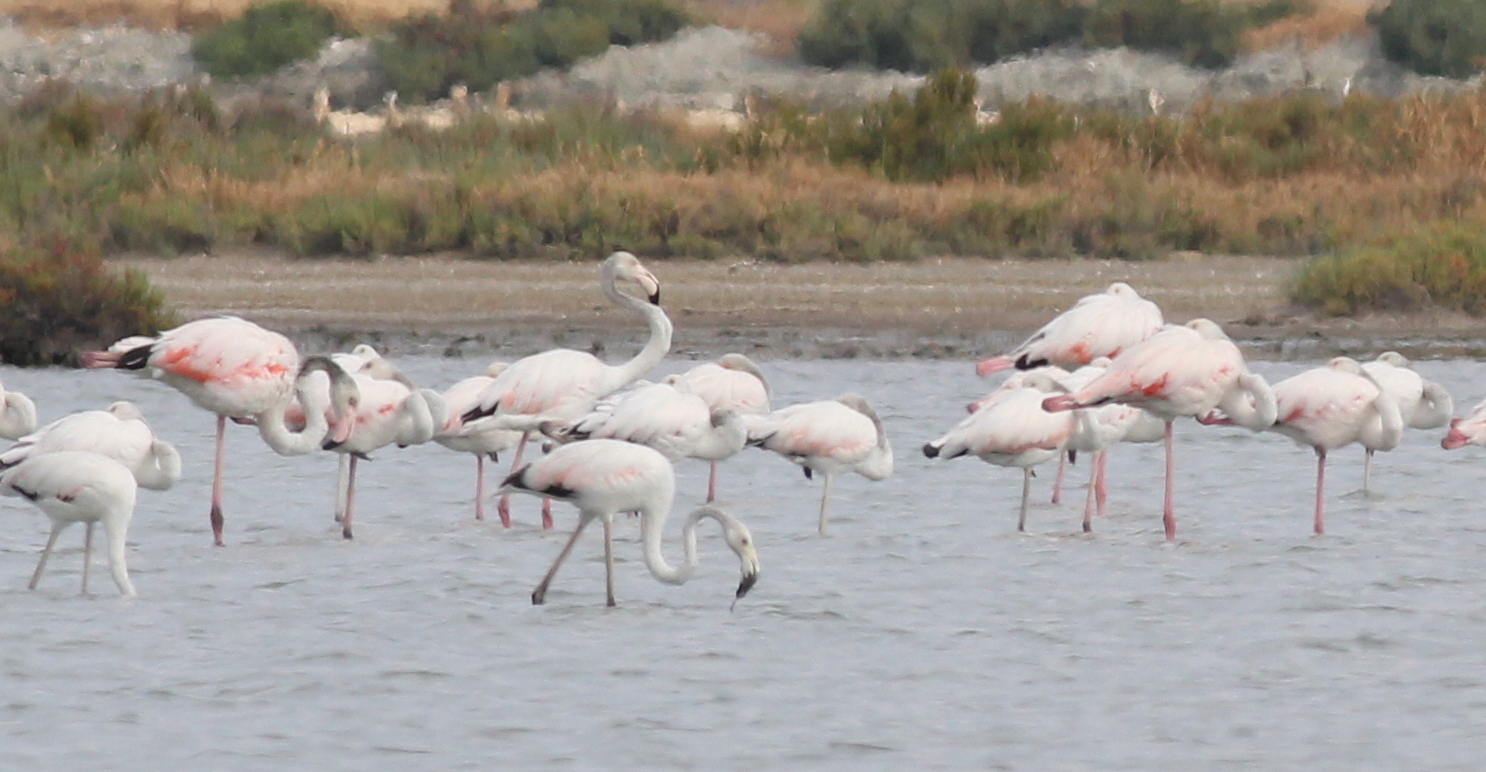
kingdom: Animalia
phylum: Chordata
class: Aves
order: Phoenicopteriformes
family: Phoenicopteridae
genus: Phoenicopterus
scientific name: Phoenicopterus roseus
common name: Greater flamingo
